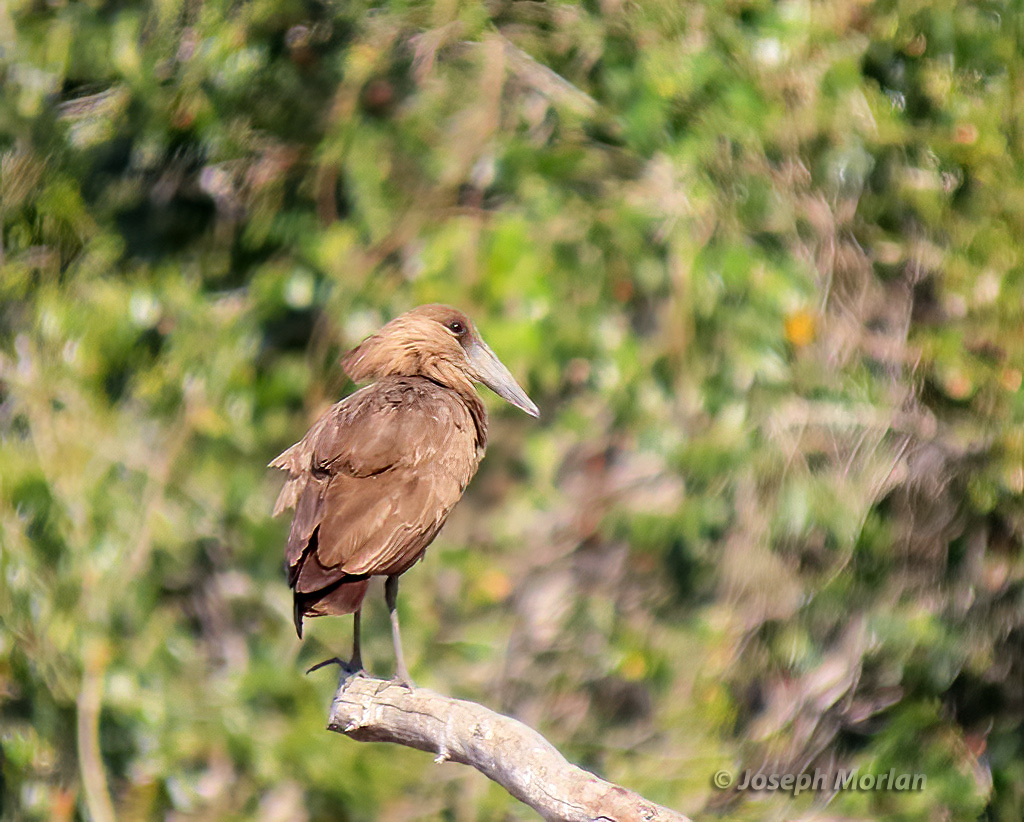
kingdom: Animalia
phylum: Chordata
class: Aves
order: Pelecaniformes
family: Scopidae
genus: Scopus
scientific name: Scopus umbretta
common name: Hamerkop
